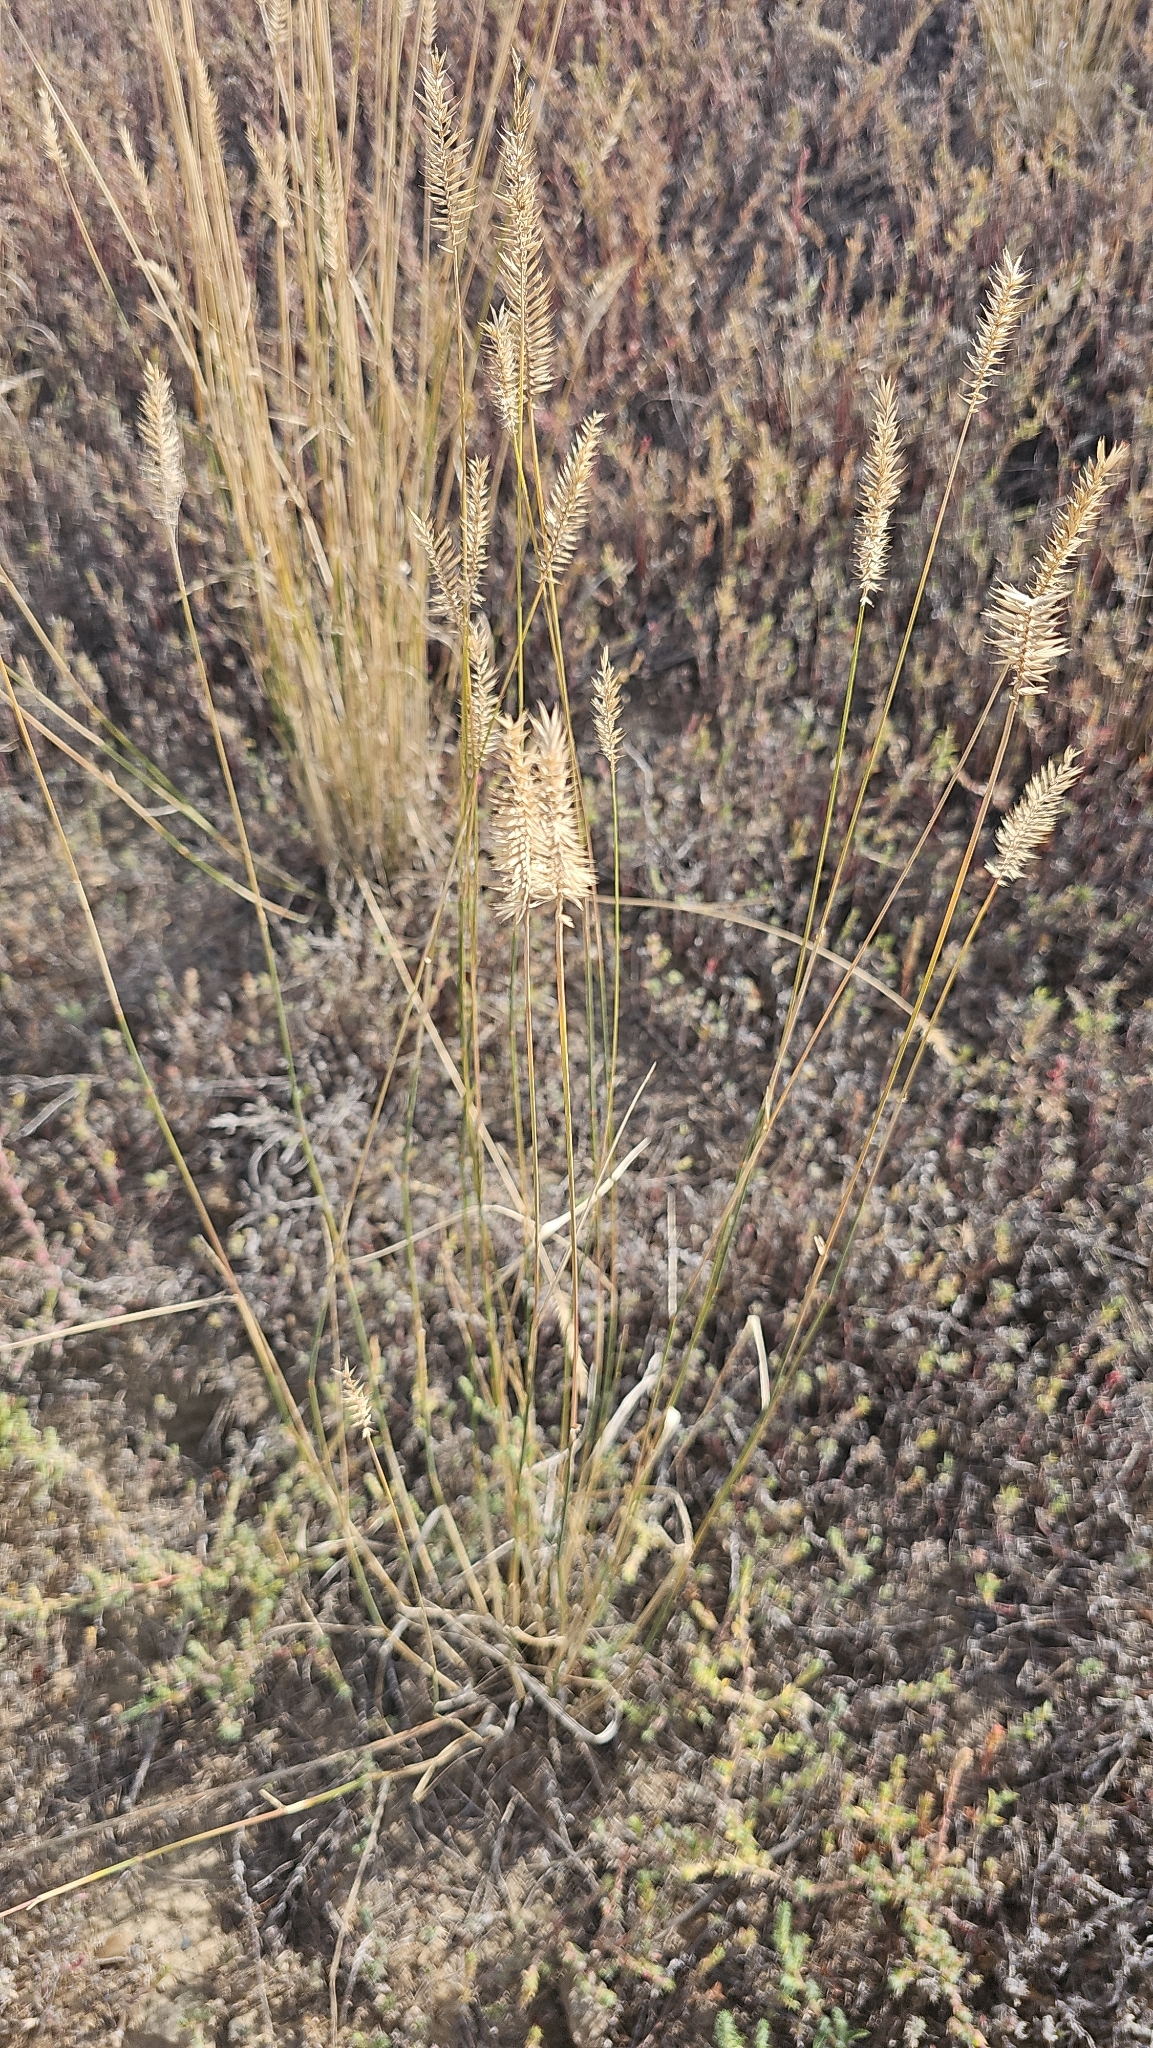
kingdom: Plantae
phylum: Tracheophyta
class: Liliopsida
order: Poales
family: Poaceae
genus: Agropyron
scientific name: Agropyron cristatum
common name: Crested wheatgrass
